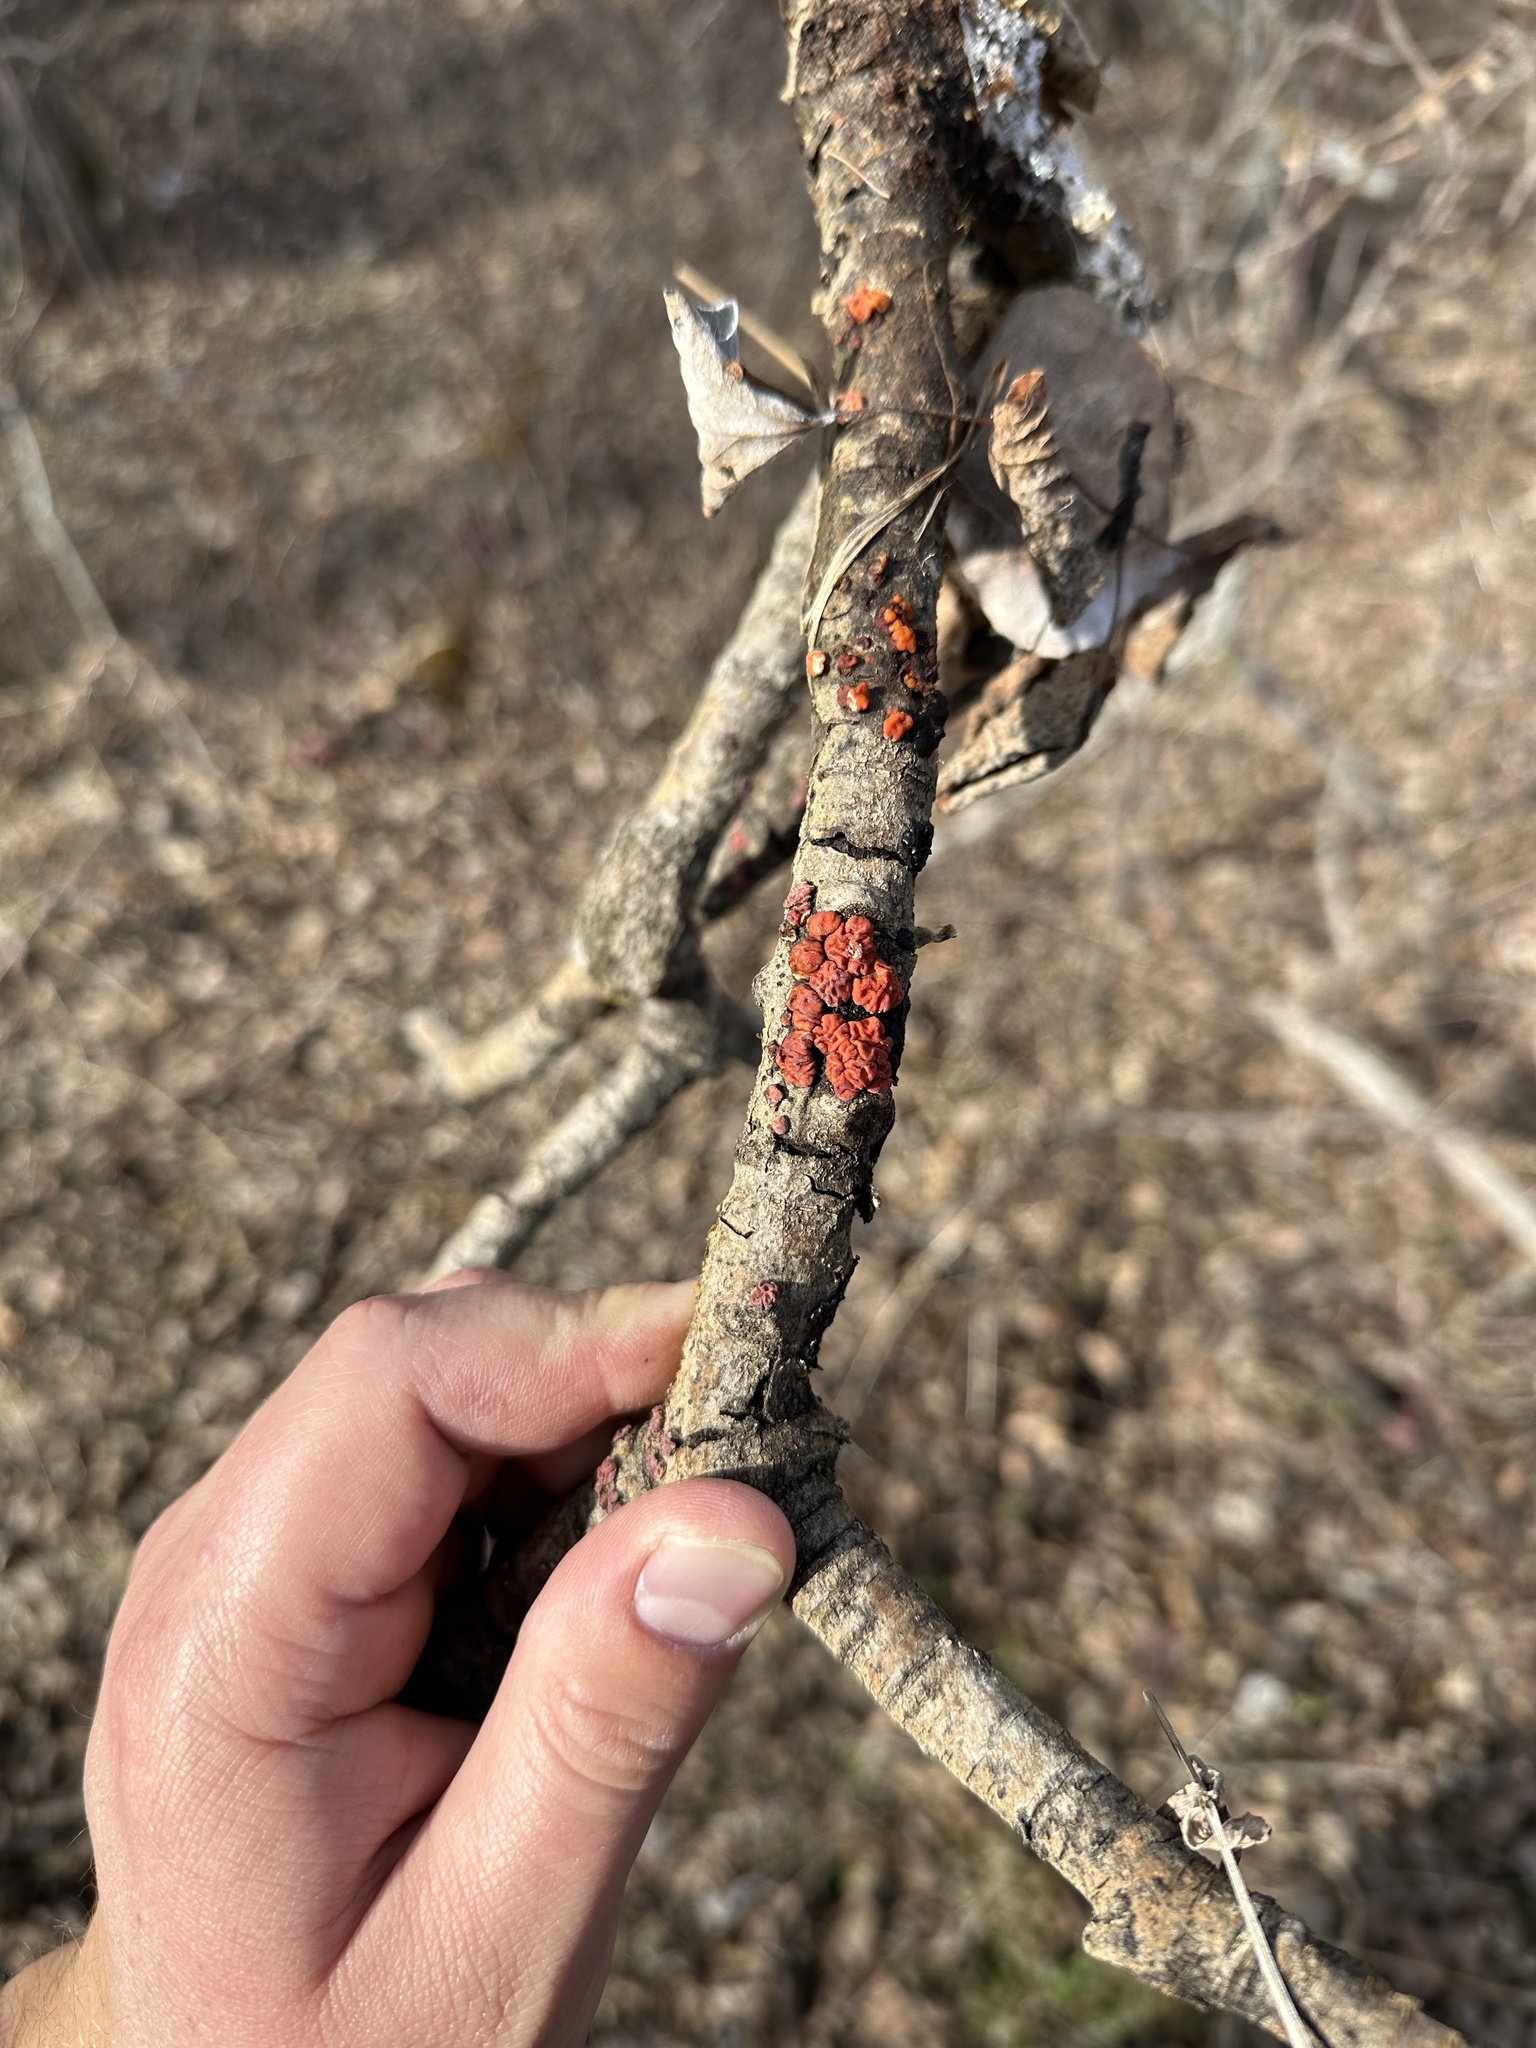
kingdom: Fungi
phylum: Basidiomycota
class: Agaricomycetes
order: Russulales
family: Peniophoraceae
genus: Peniophora
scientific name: Peniophora rufa
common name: Red tree brain fungus
